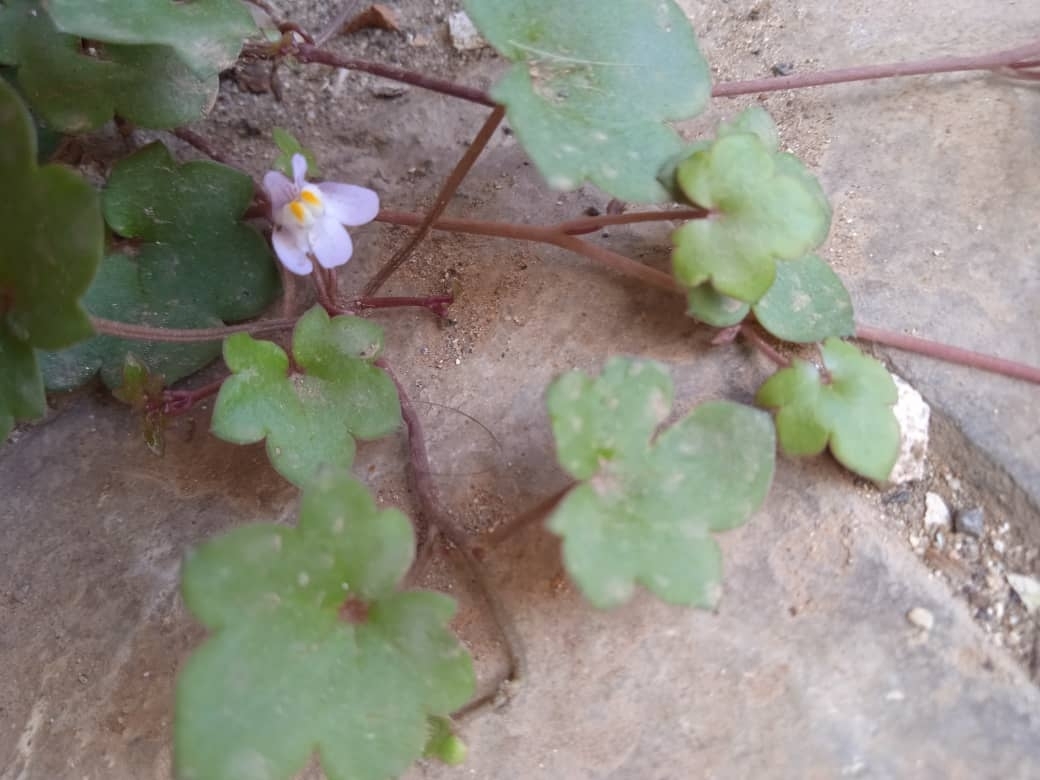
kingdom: Plantae
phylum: Tracheophyta
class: Magnoliopsida
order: Lamiales
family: Plantaginaceae
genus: Cymbalaria
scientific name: Cymbalaria muralis
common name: Ivy-leaved toadflax
